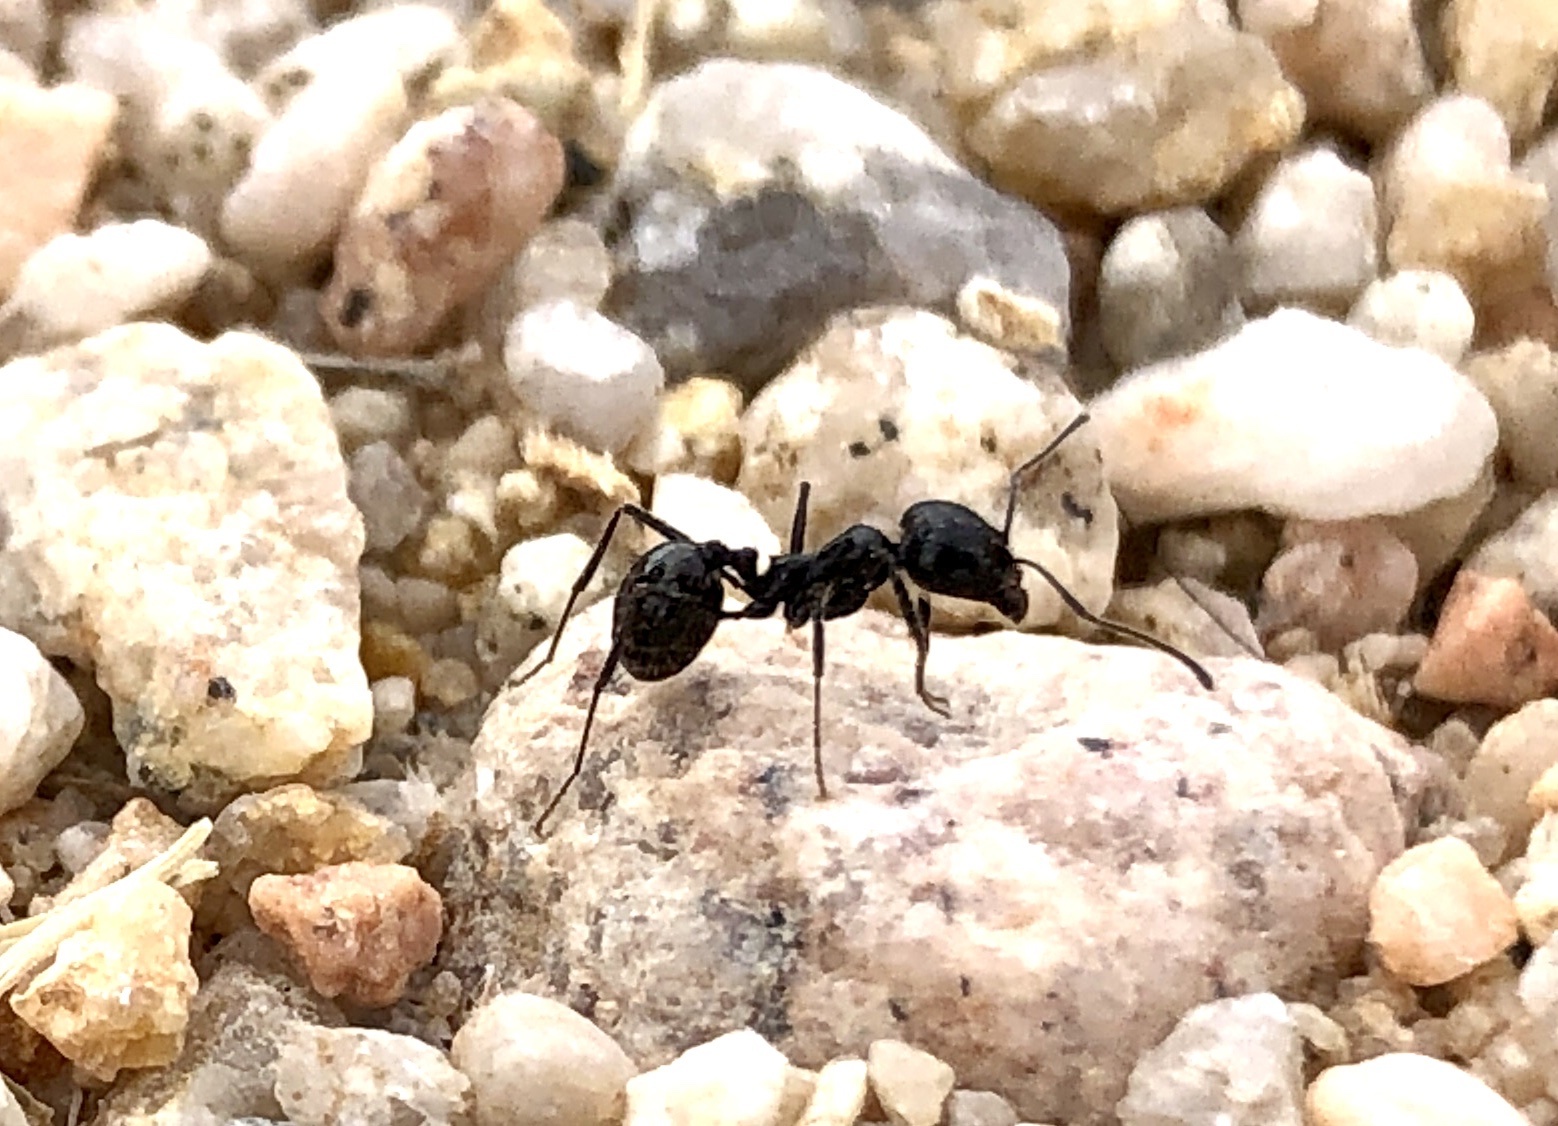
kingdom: Animalia
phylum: Arthropoda
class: Insecta
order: Hymenoptera
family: Formicidae
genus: Messor
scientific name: Messor pergandei
